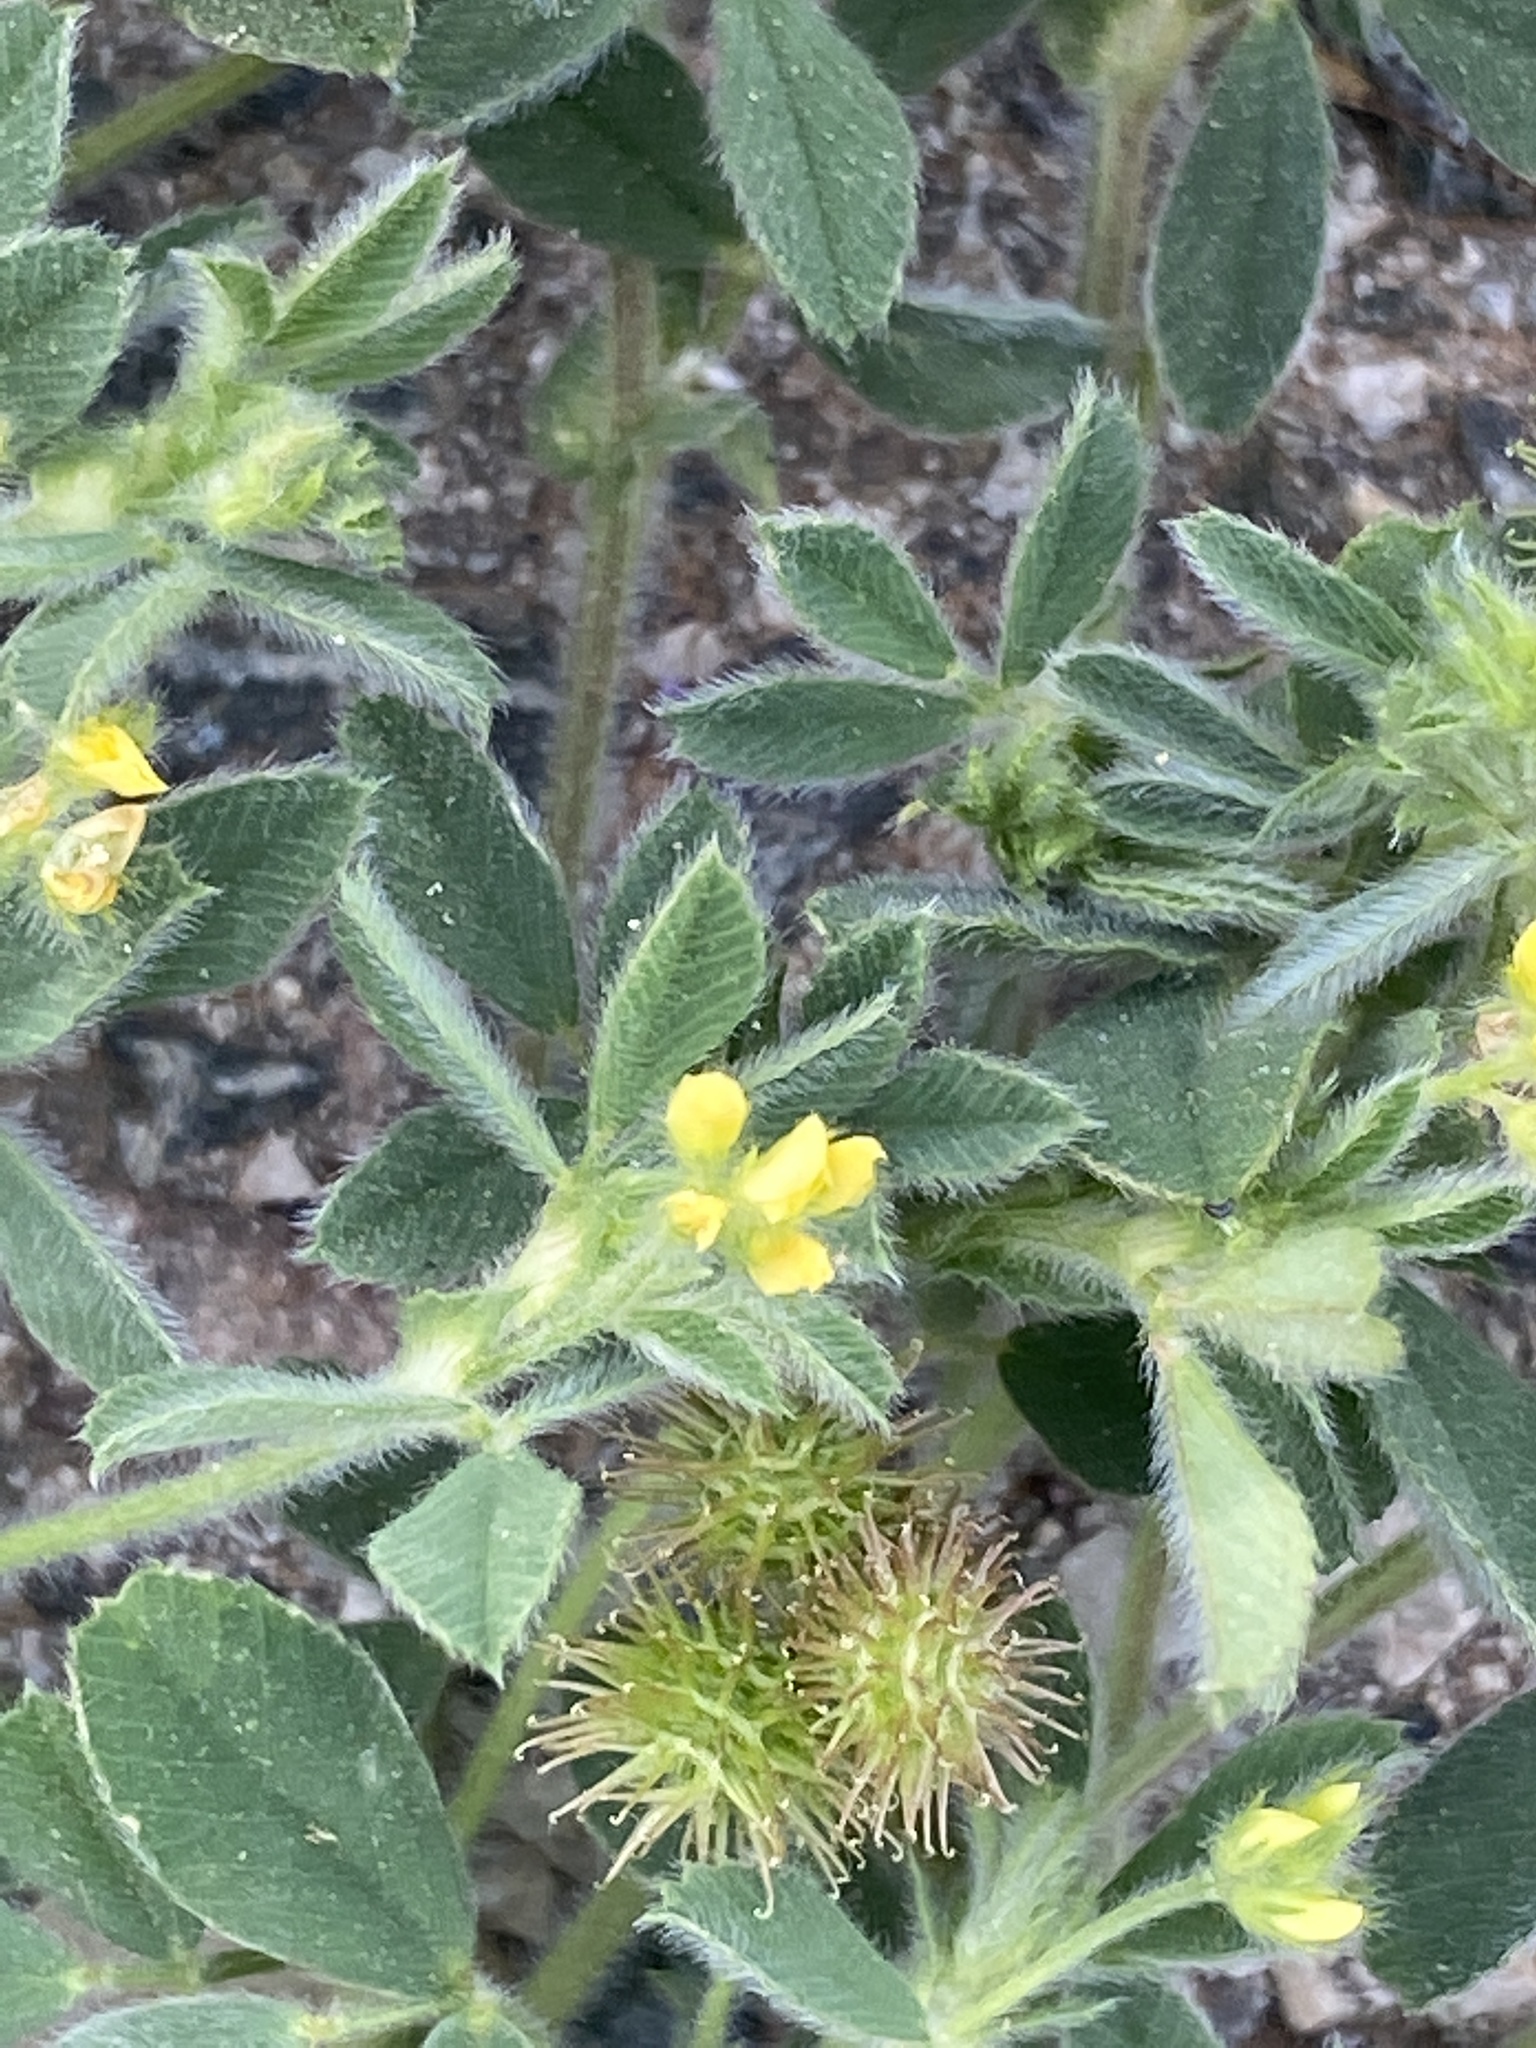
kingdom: Plantae
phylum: Tracheophyta
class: Magnoliopsida
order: Fabales
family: Fabaceae
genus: Medicago
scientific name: Medicago minima
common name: Little bur-clover
